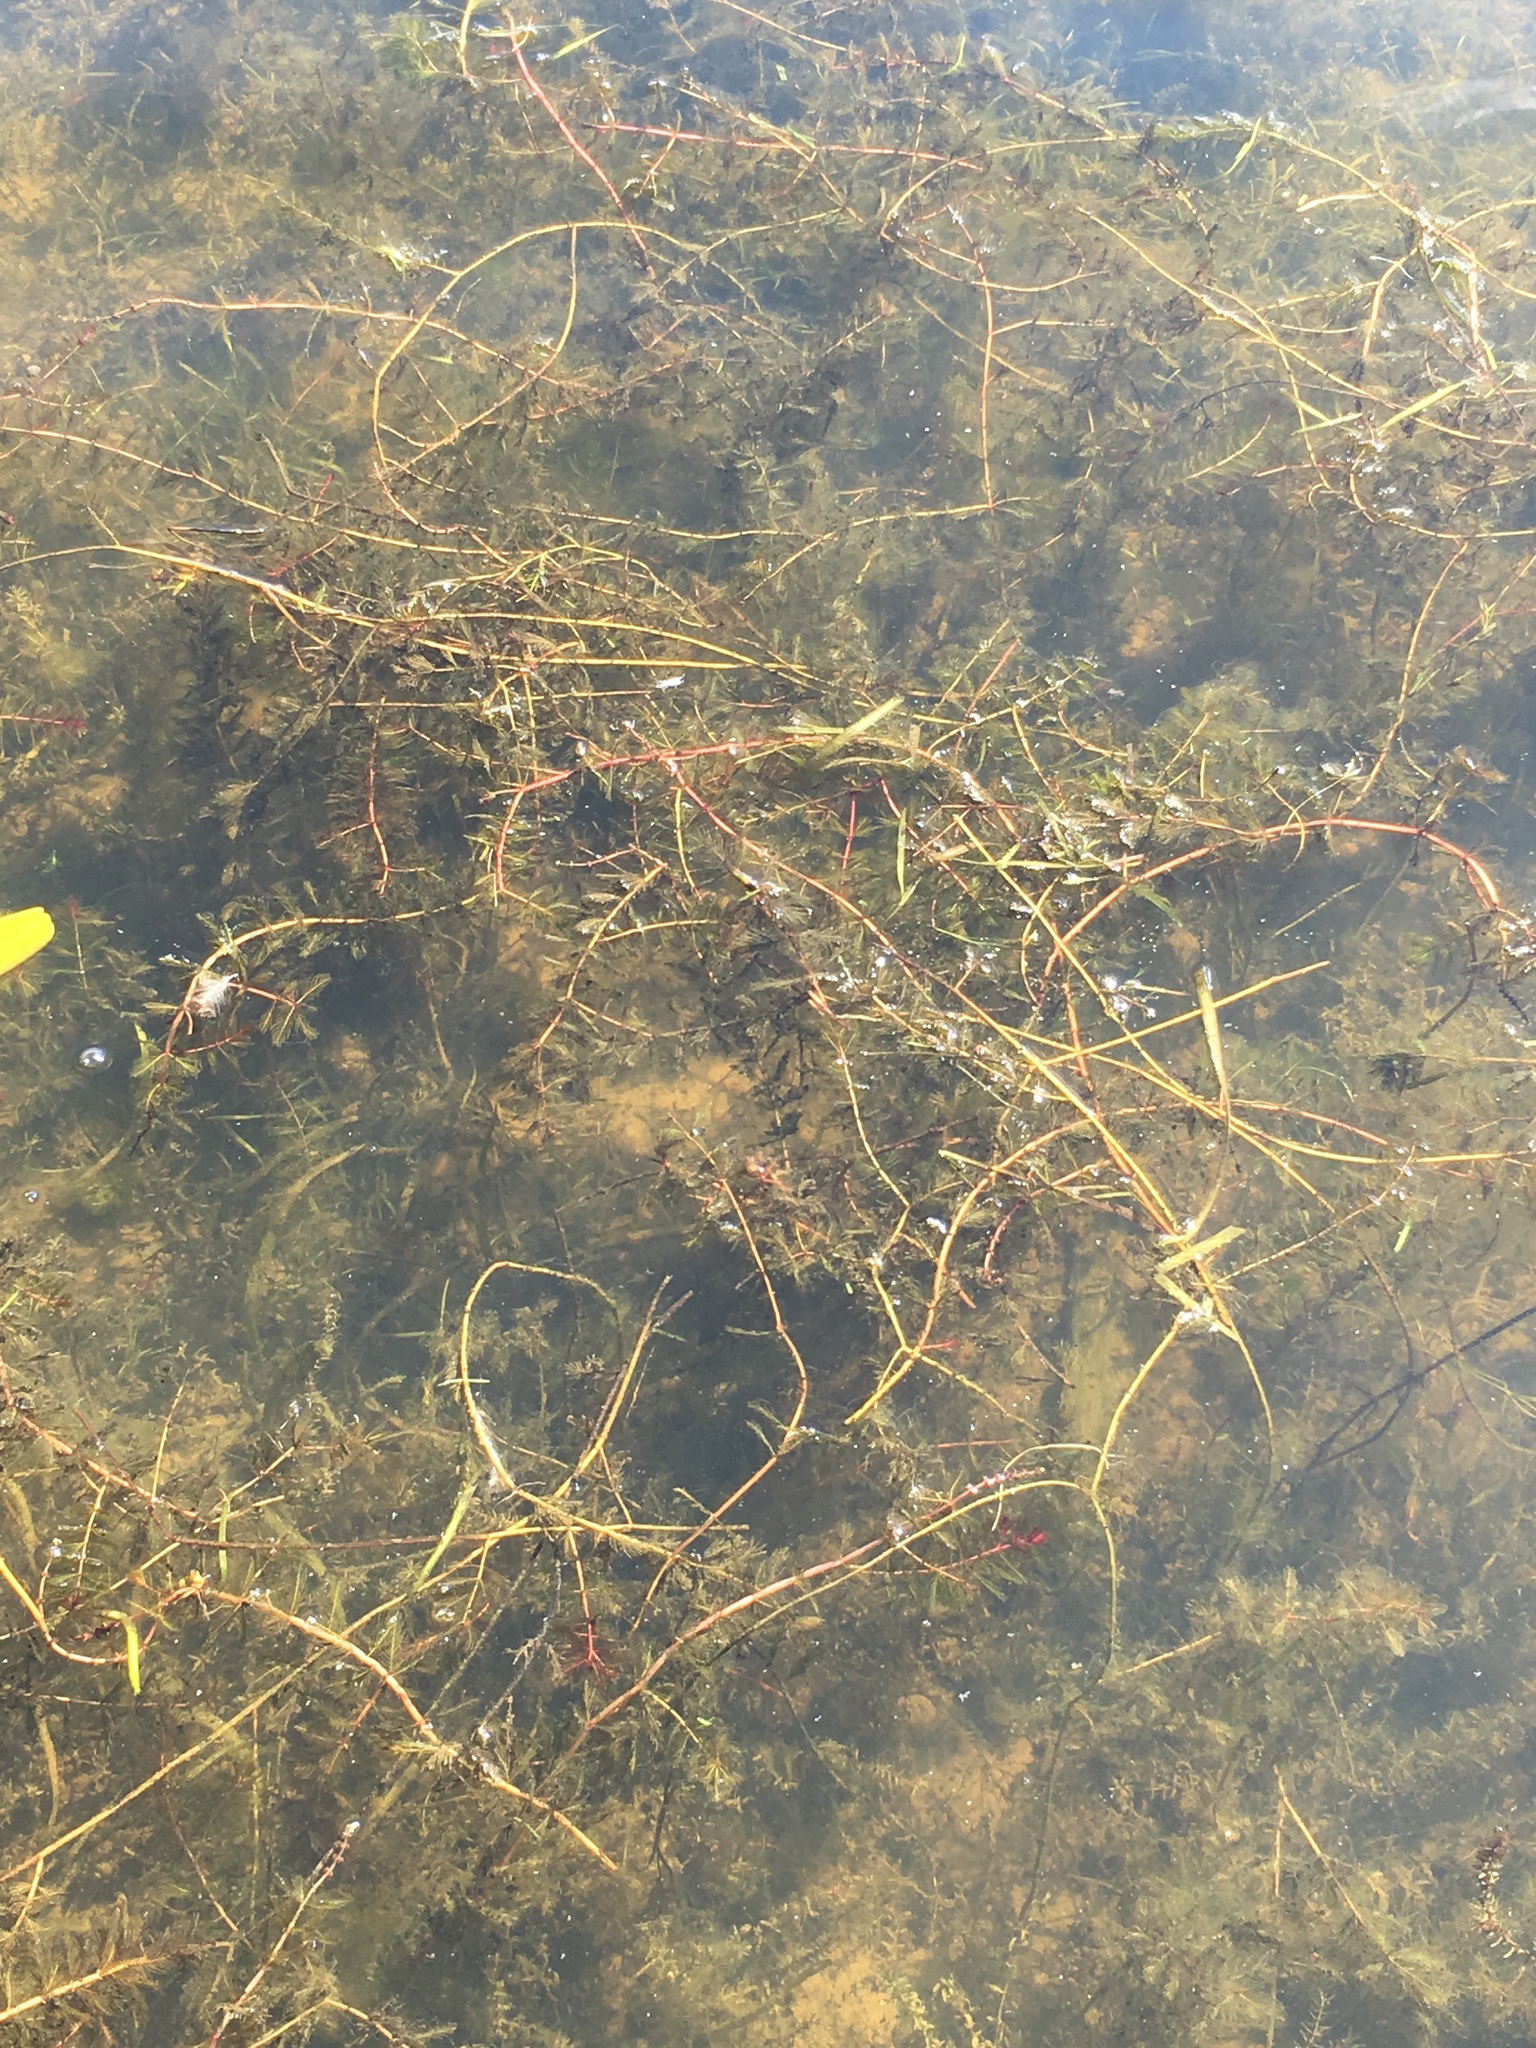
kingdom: Plantae
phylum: Tracheophyta
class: Magnoliopsida
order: Saxifragales
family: Haloragaceae
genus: Myriophyllum
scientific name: Myriophyllum spicatum
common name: Spiked water-milfoil
